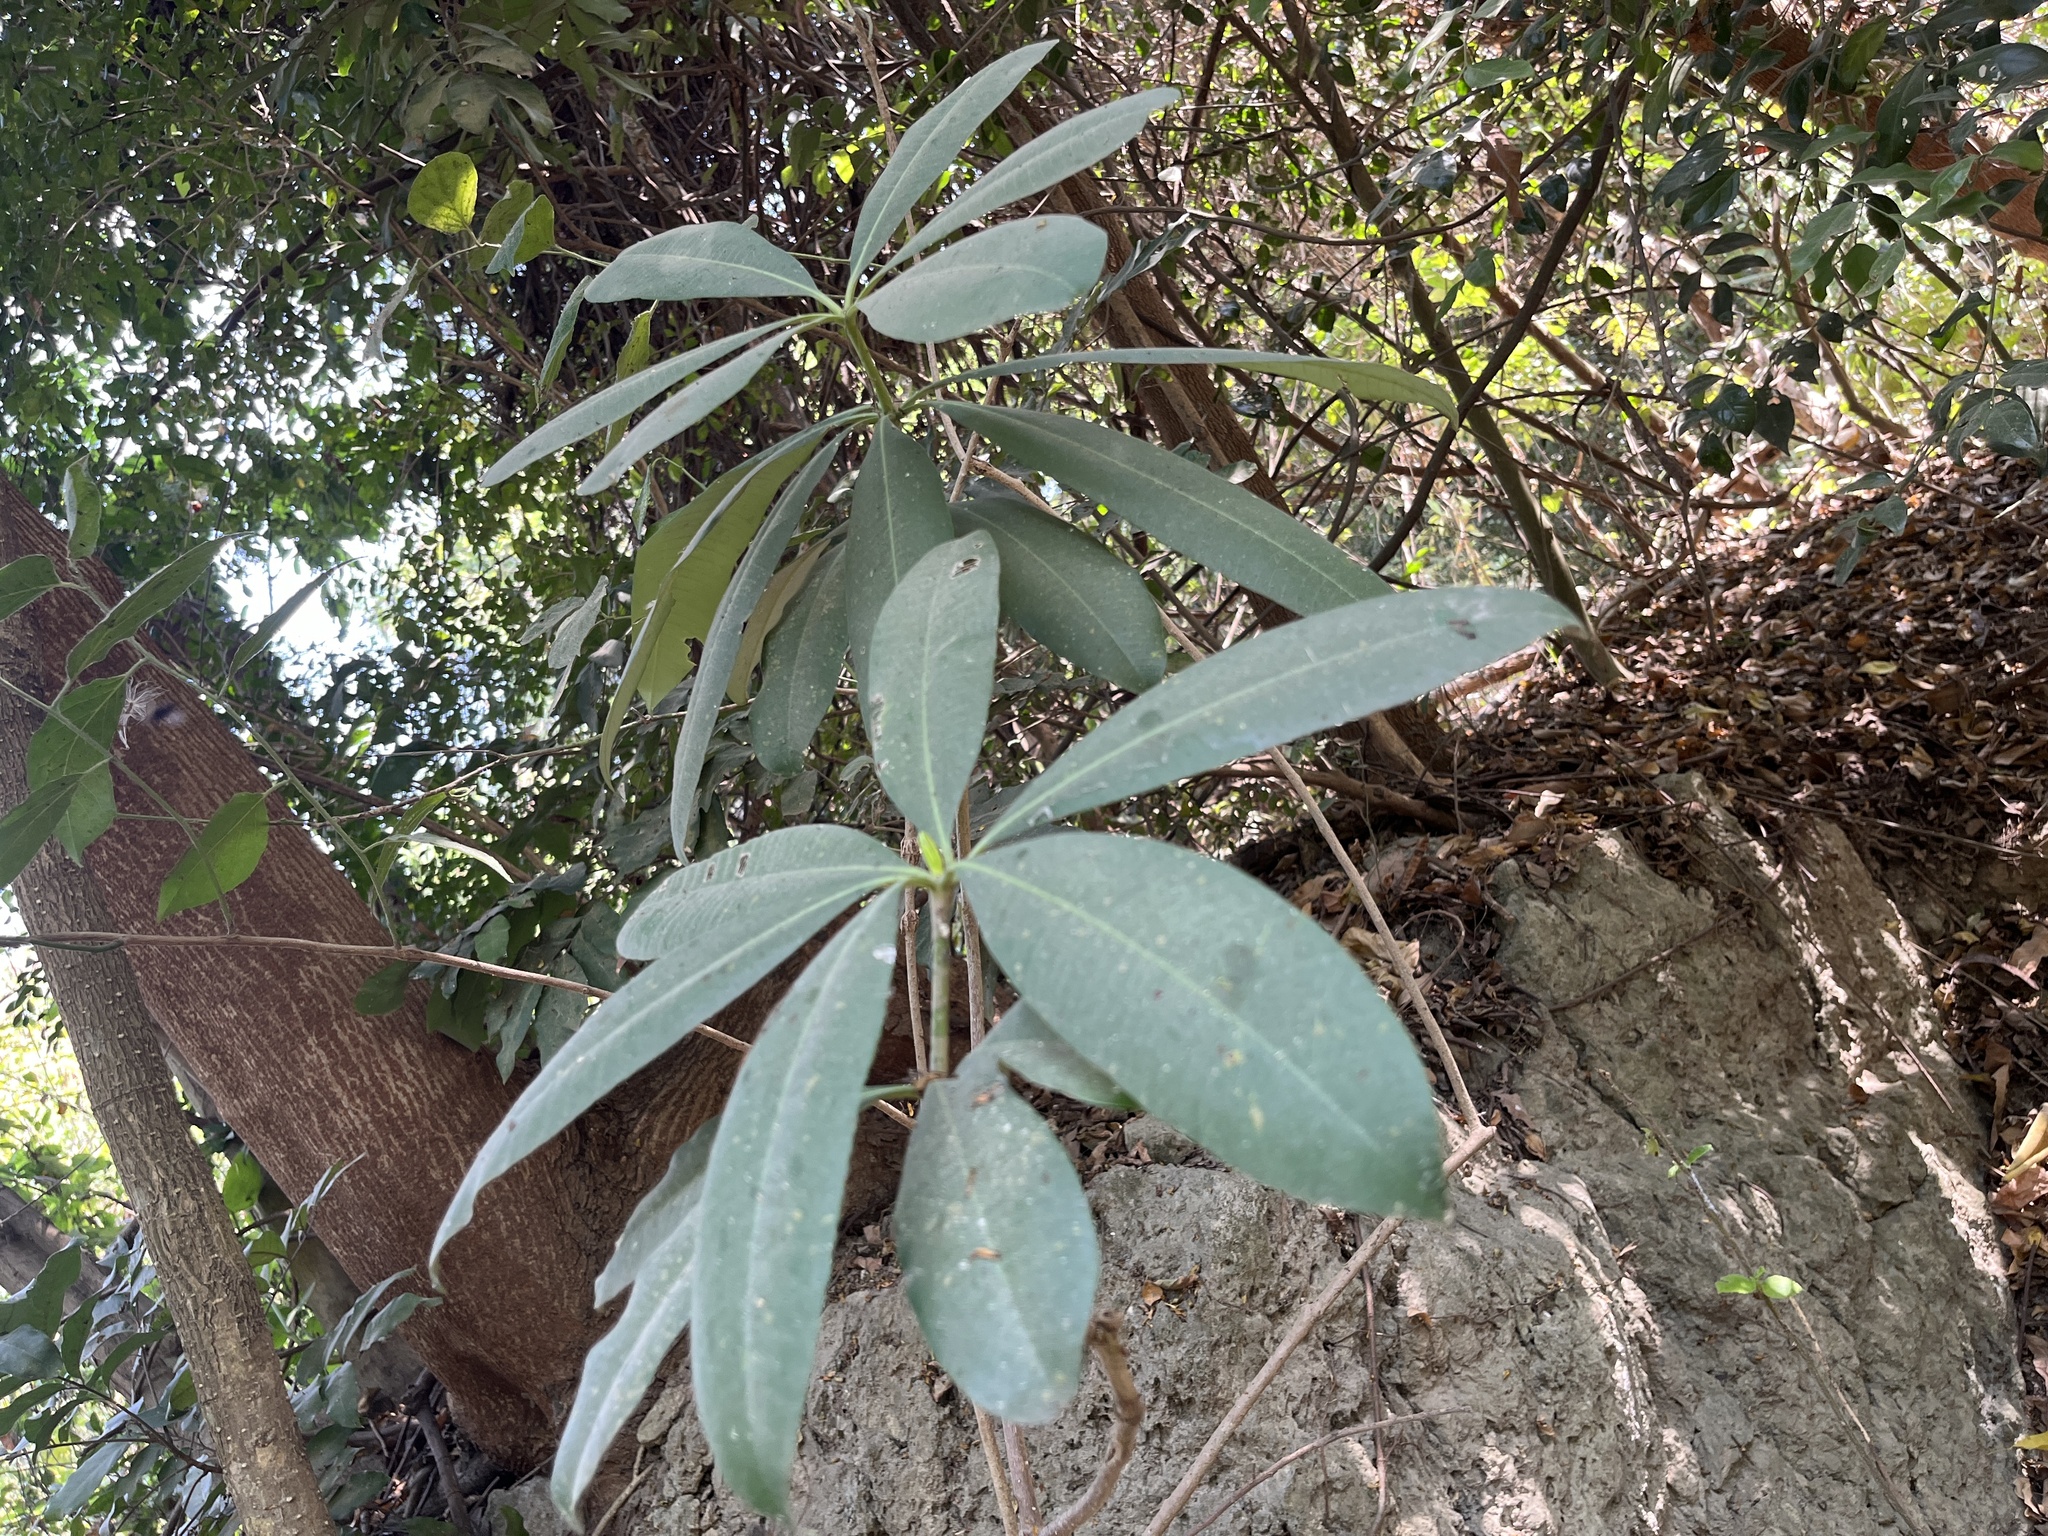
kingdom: Plantae
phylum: Tracheophyta
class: Magnoliopsida
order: Gentianales
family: Apocynaceae
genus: Alstonia
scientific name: Alstonia scholaris
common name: White cheesewood
